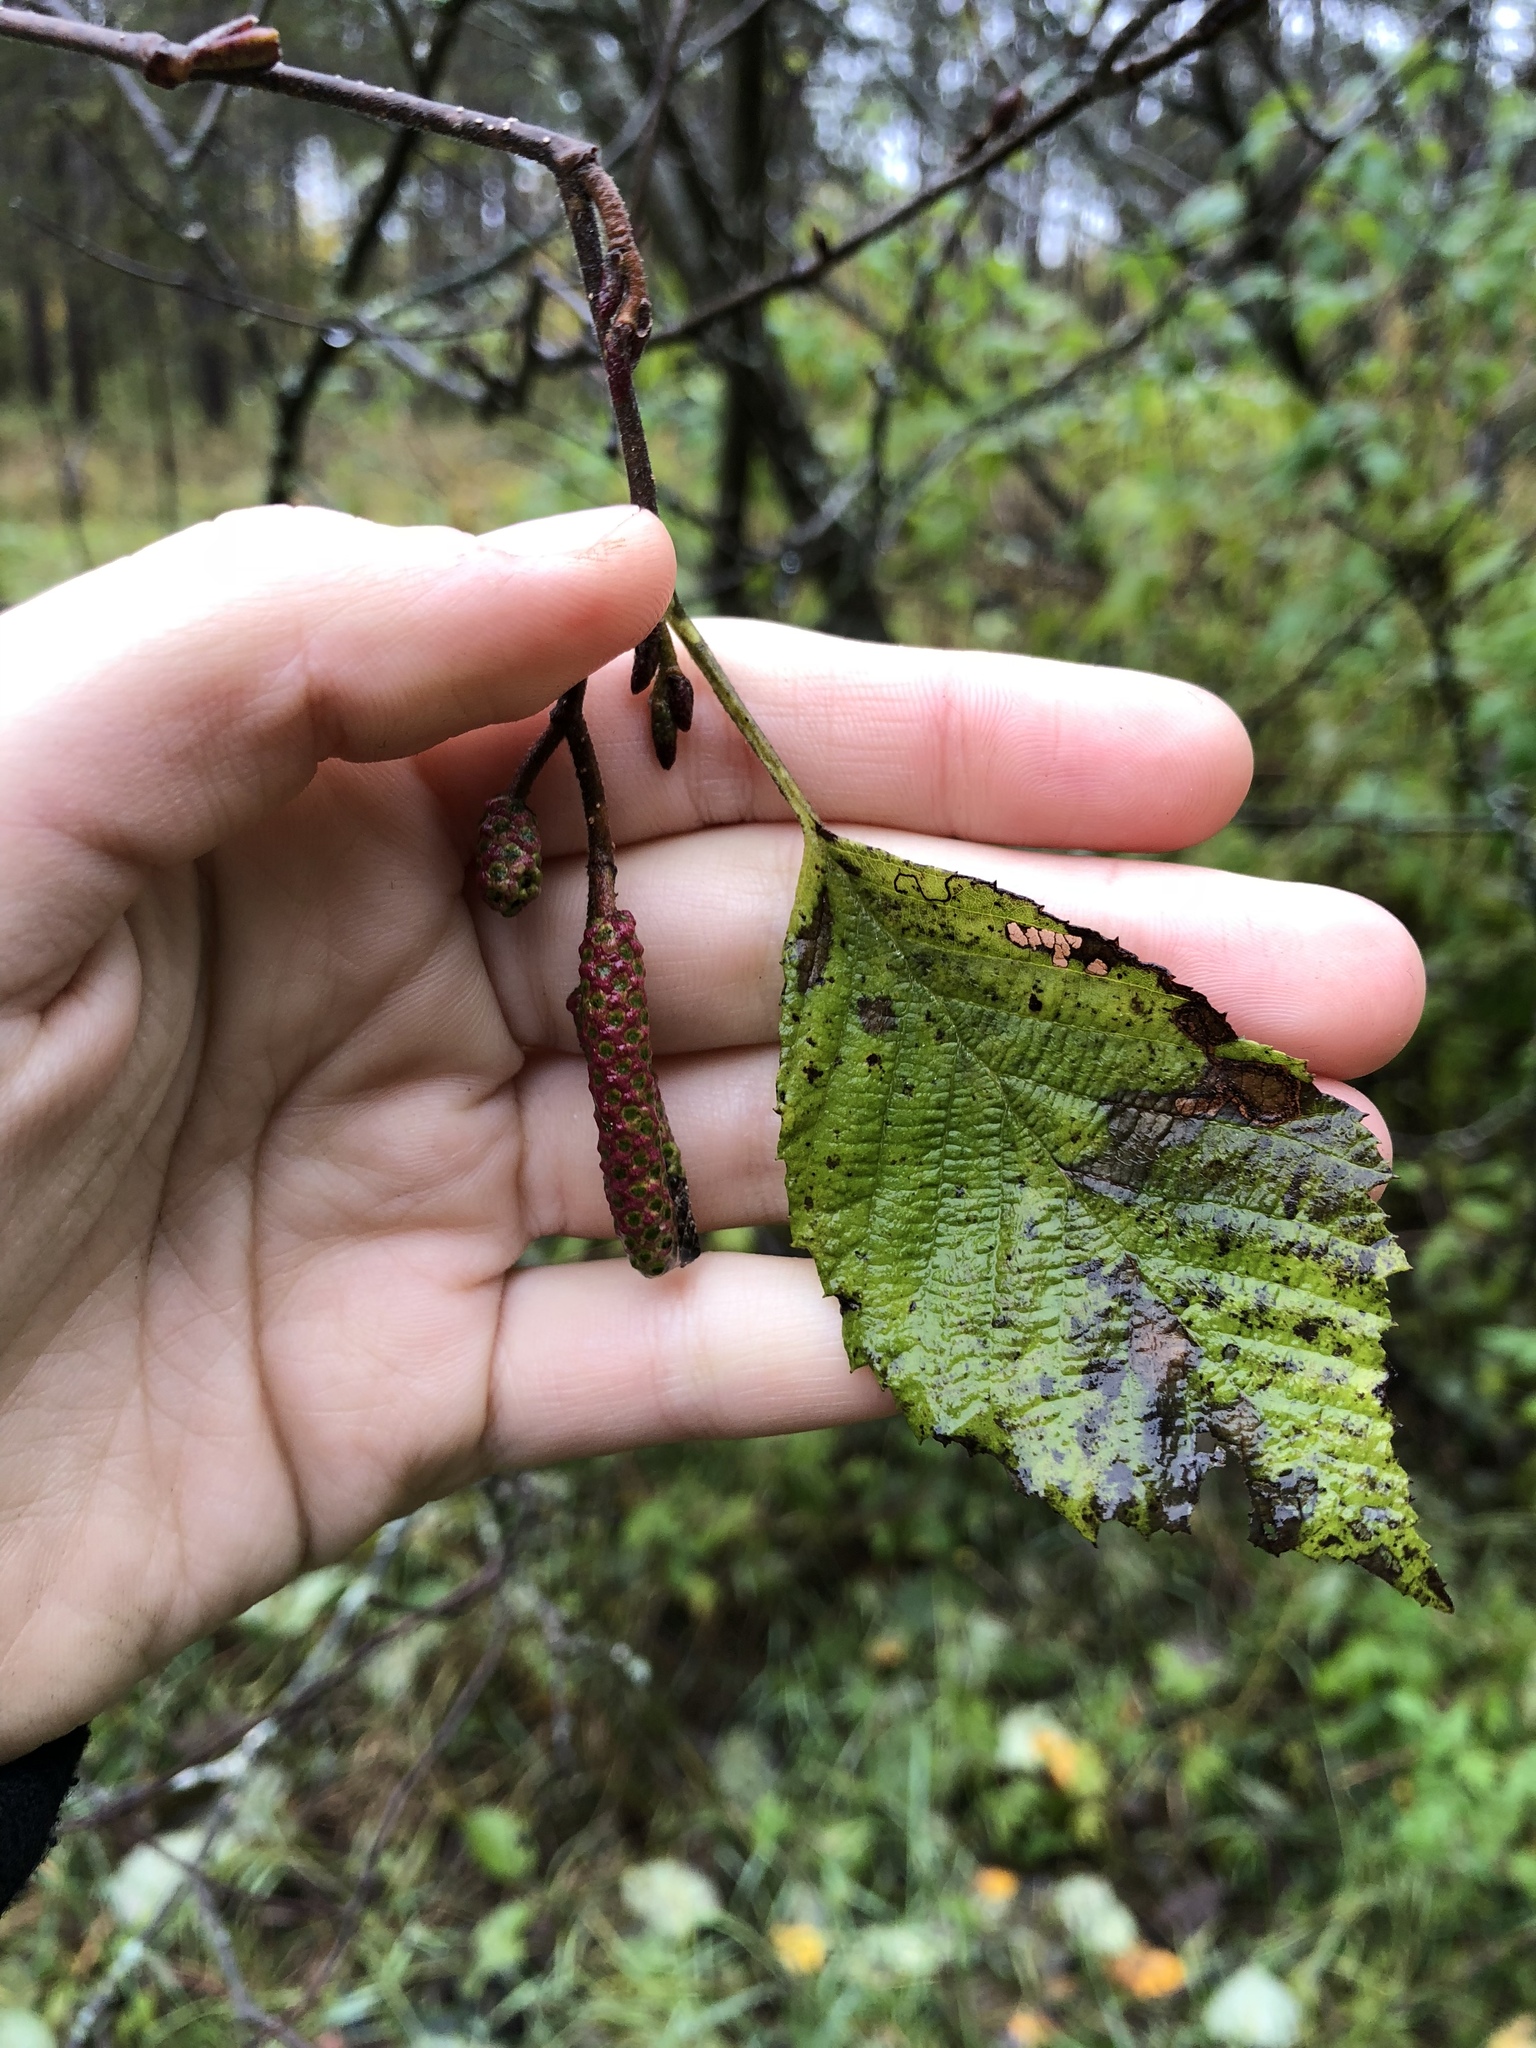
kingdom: Plantae
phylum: Tracheophyta
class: Magnoliopsida
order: Fagales
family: Betulaceae
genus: Alnus
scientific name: Alnus incana
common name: Grey alder
